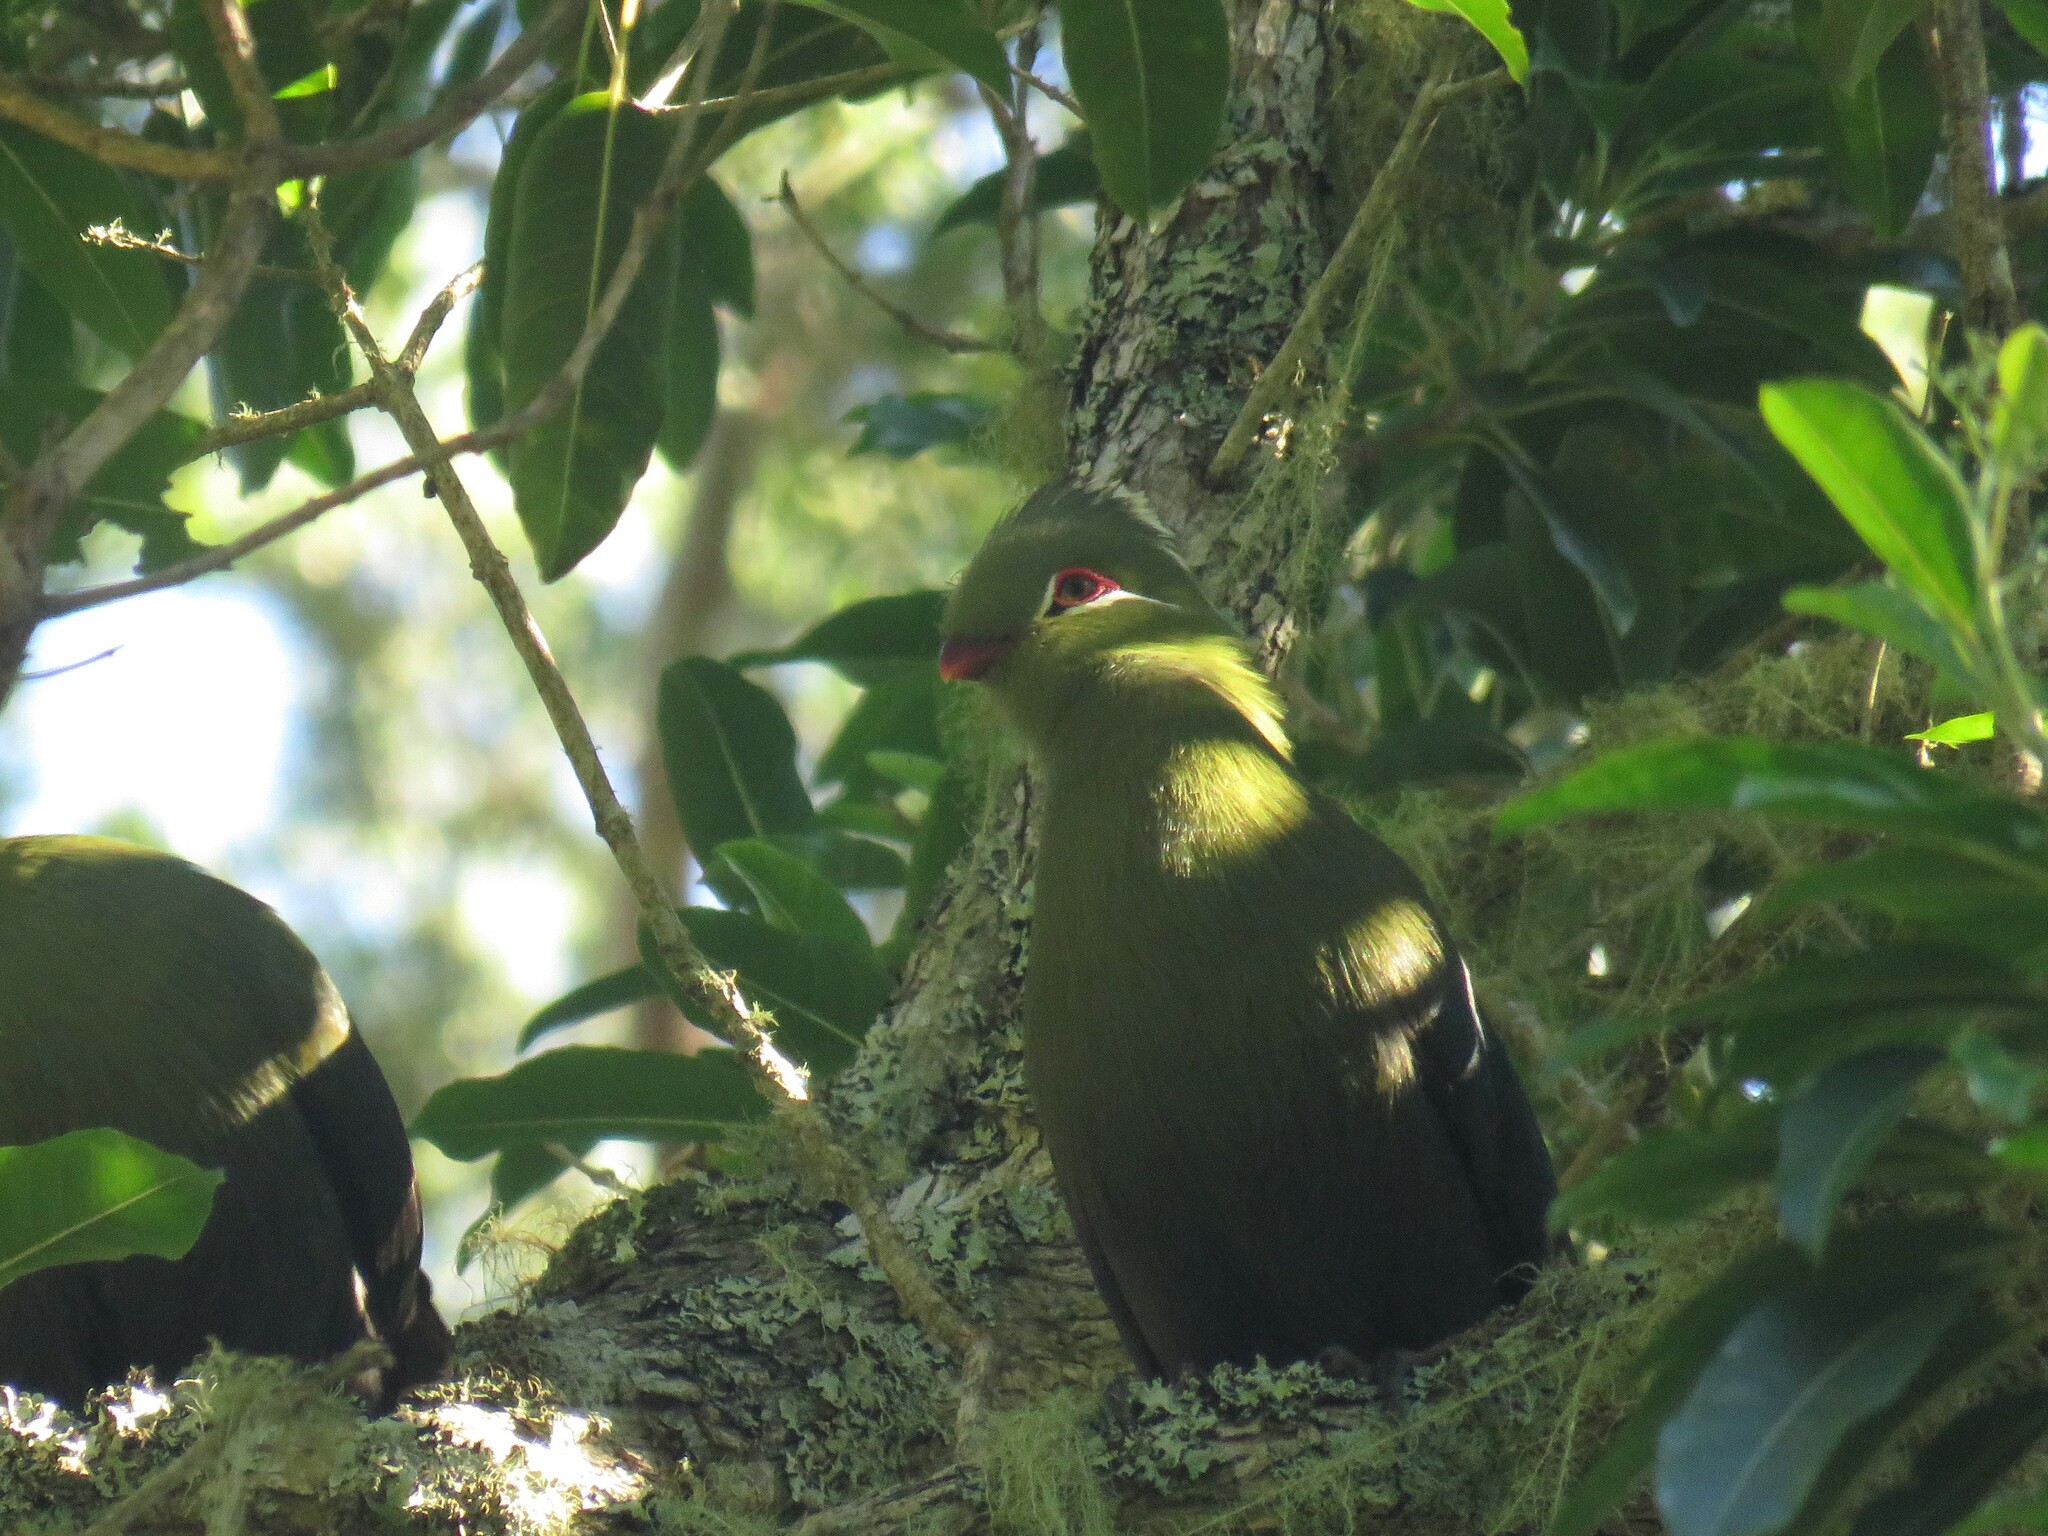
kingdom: Animalia
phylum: Chordata
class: Aves
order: Musophagiformes
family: Musophagidae
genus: Tauraco
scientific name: Tauraco corythaix
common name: Knysna turaco
